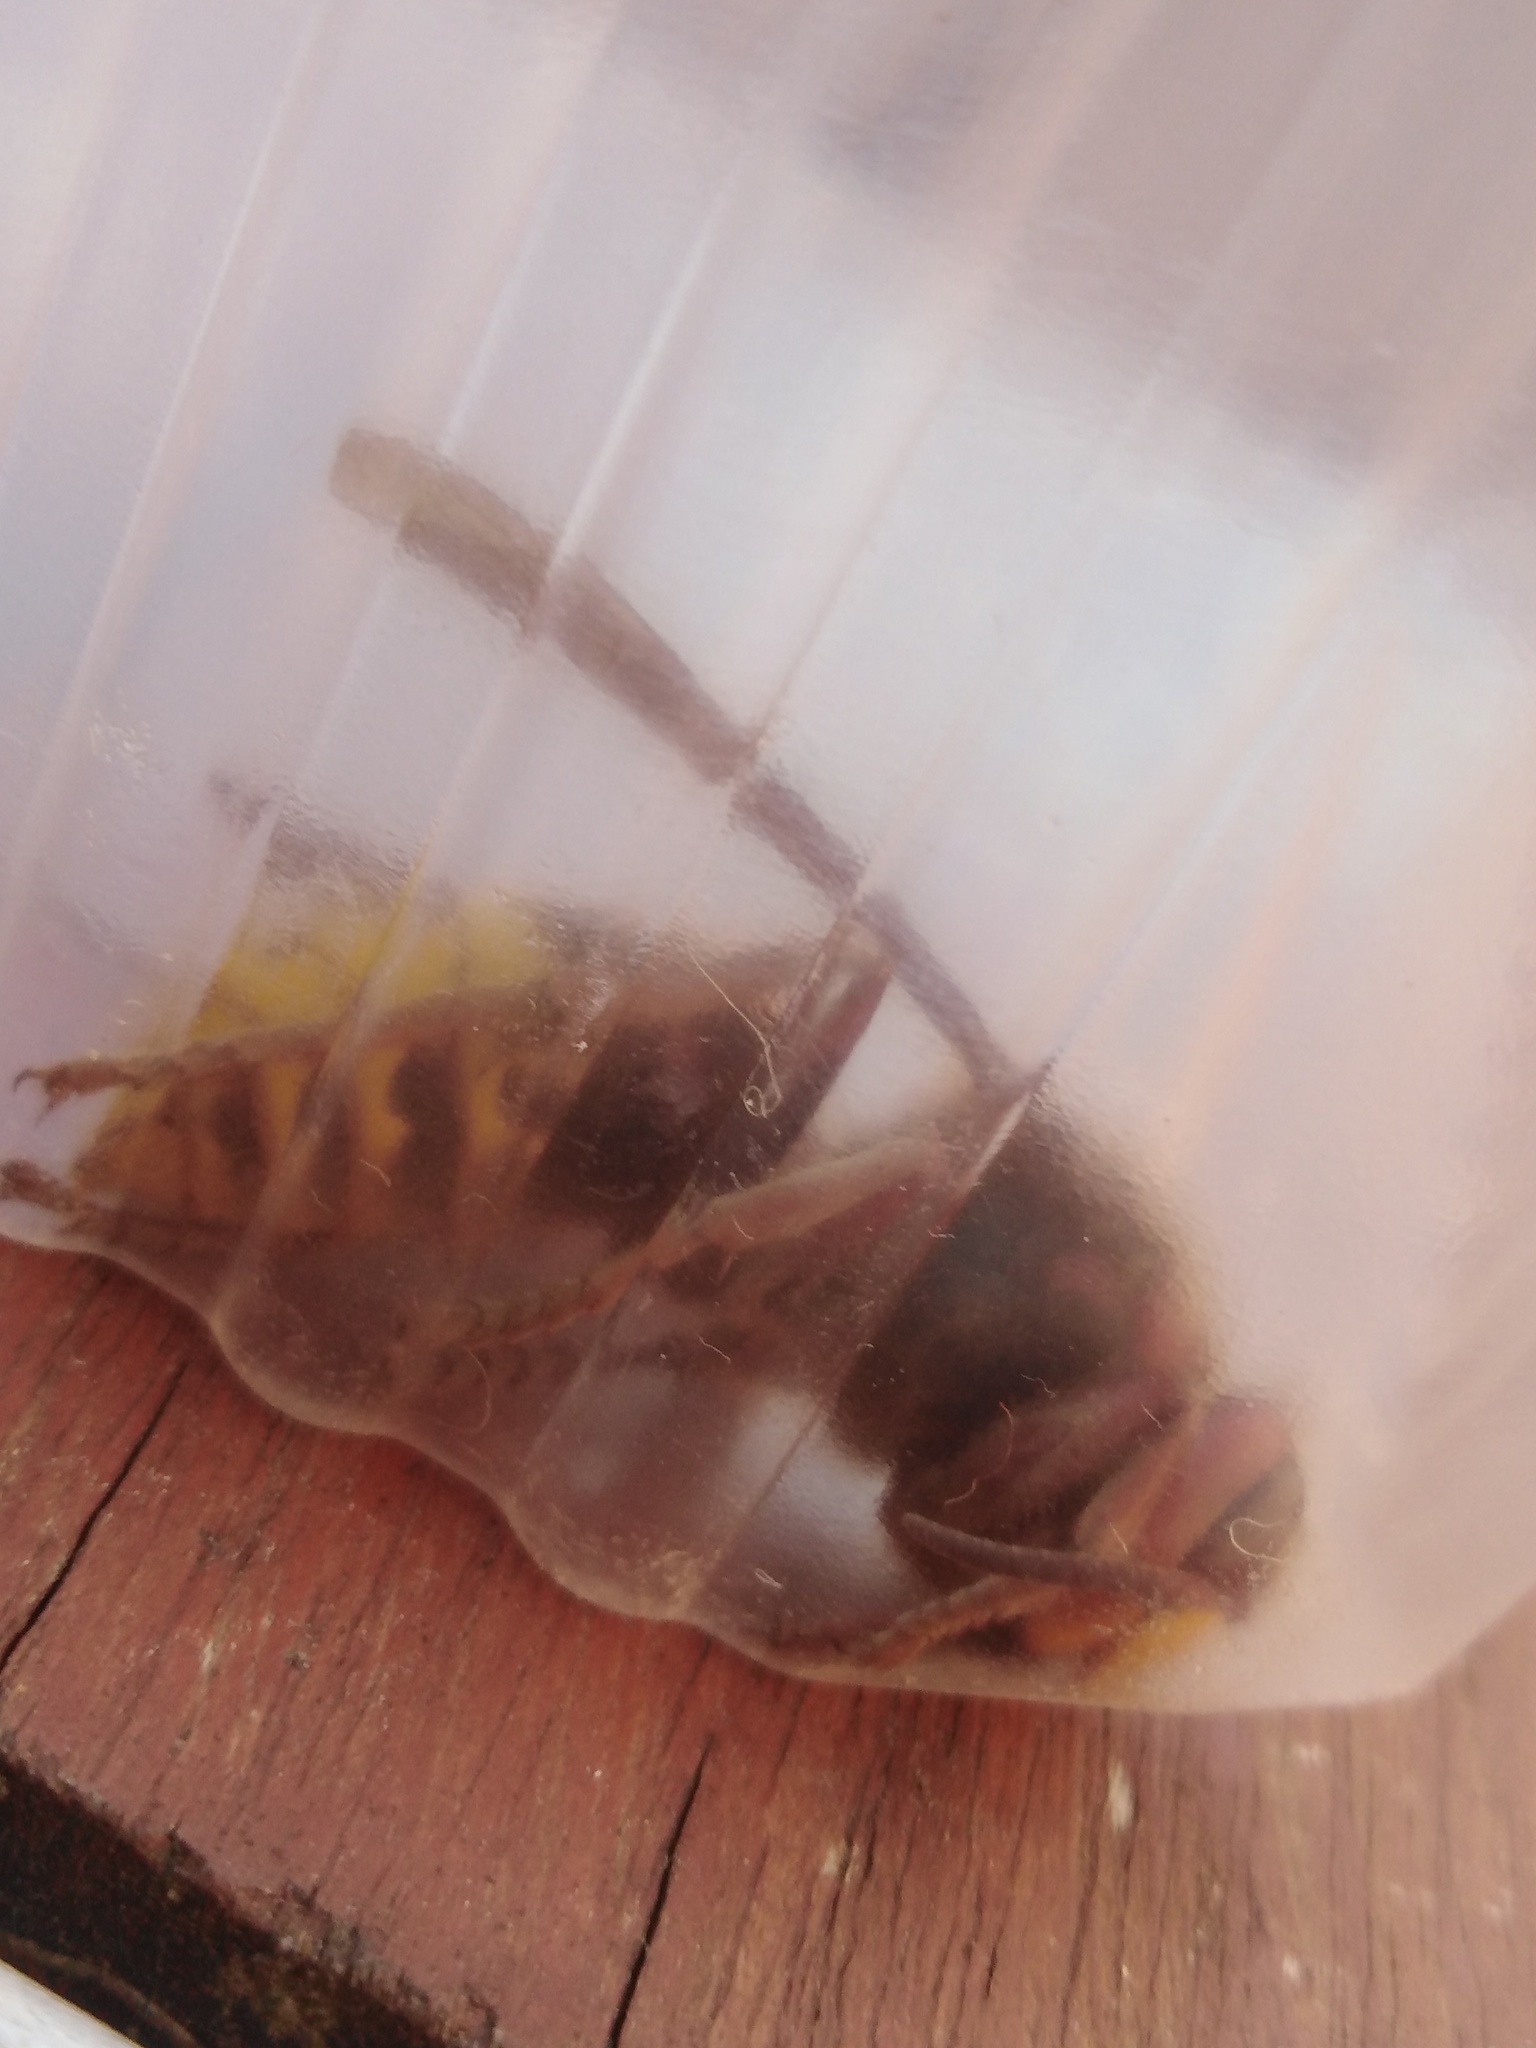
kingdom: Animalia
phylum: Arthropoda
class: Insecta
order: Hymenoptera
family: Vespidae
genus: Vespa
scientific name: Vespa crabro
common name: Hornet
